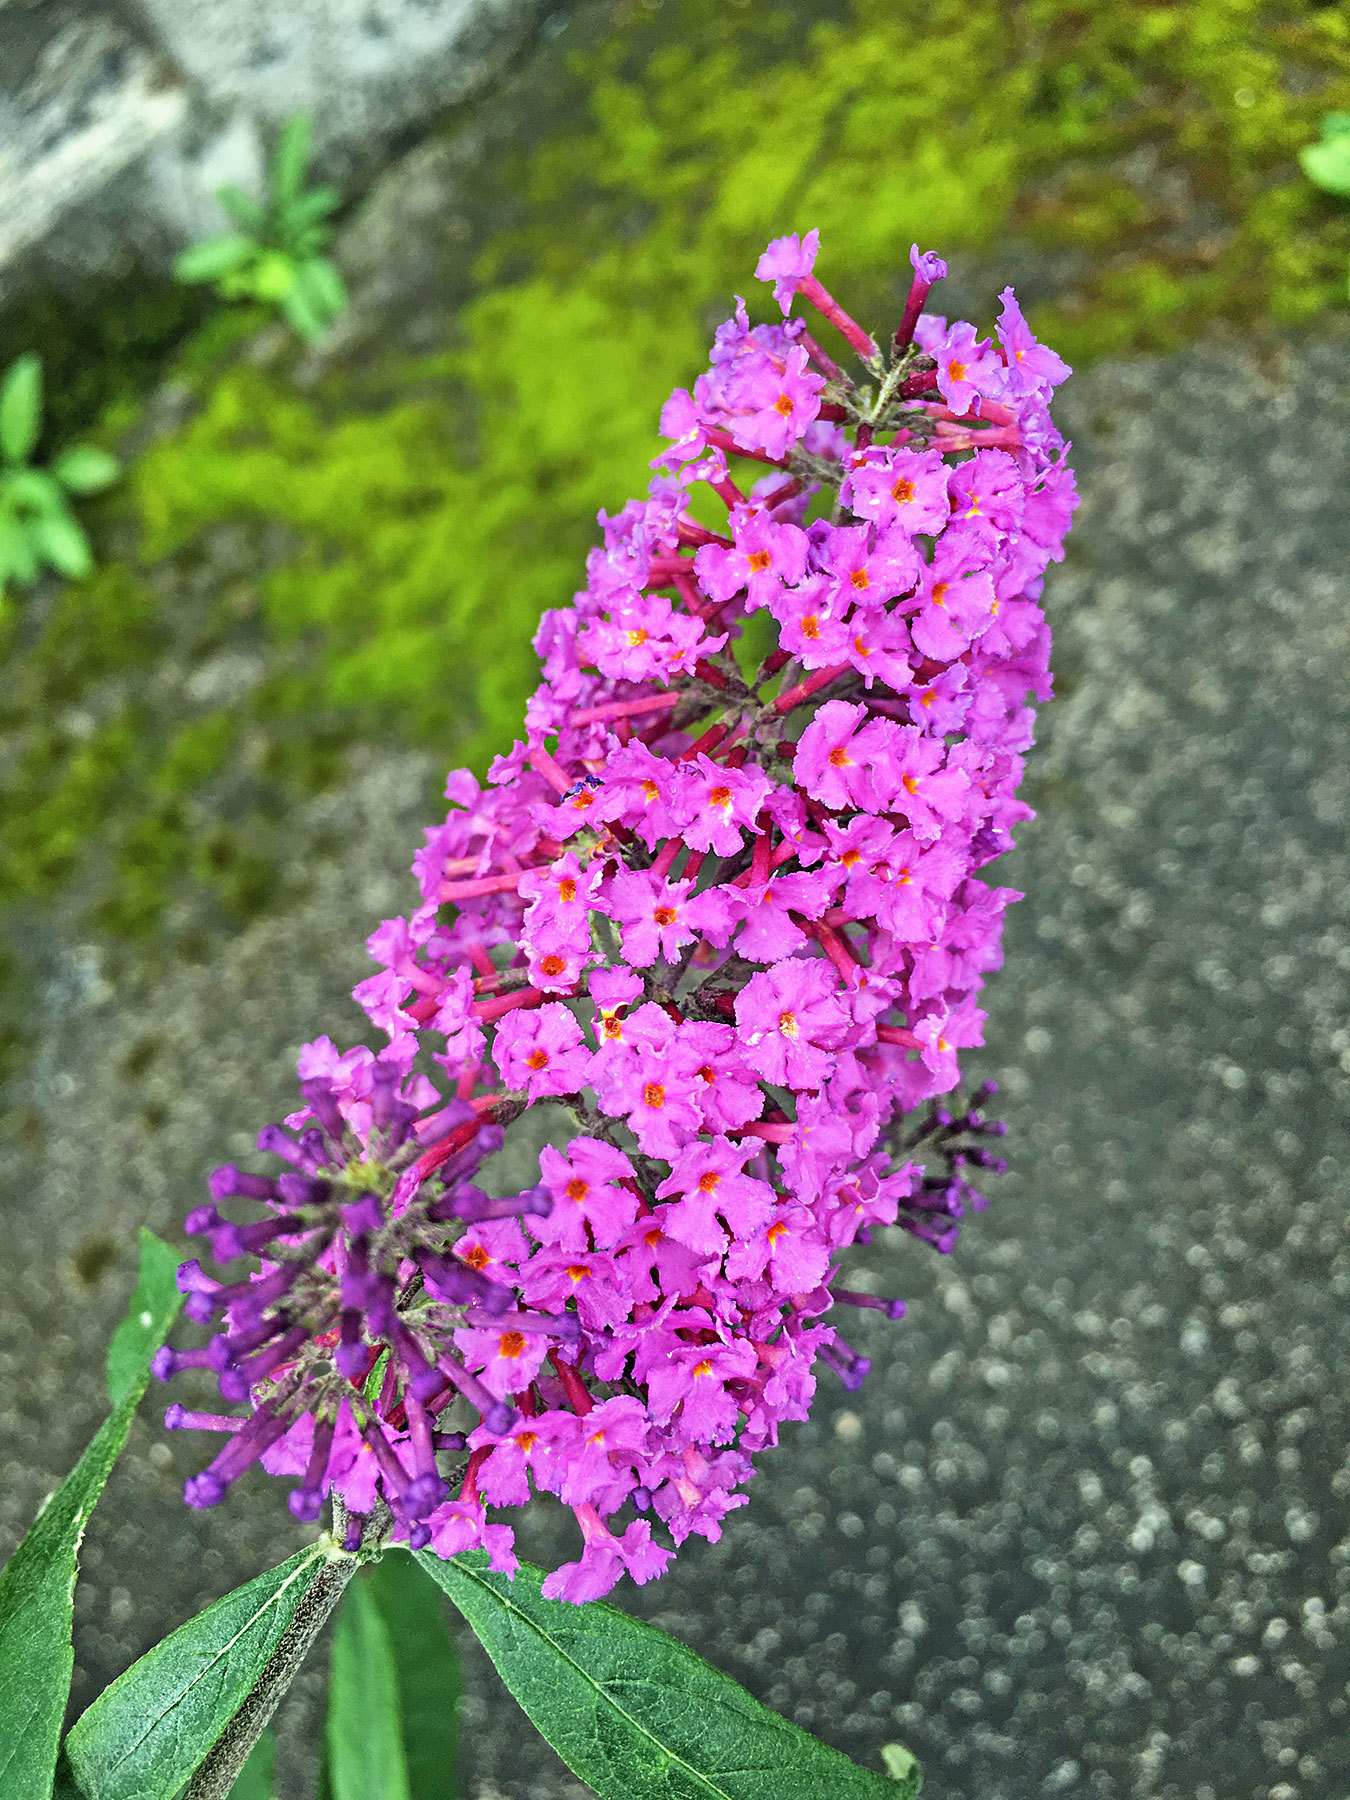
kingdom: Plantae
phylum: Tracheophyta
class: Magnoliopsida
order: Lamiales
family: Scrophulariaceae
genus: Buddleja
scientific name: Buddleja davidii
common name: Butterfly-bush
